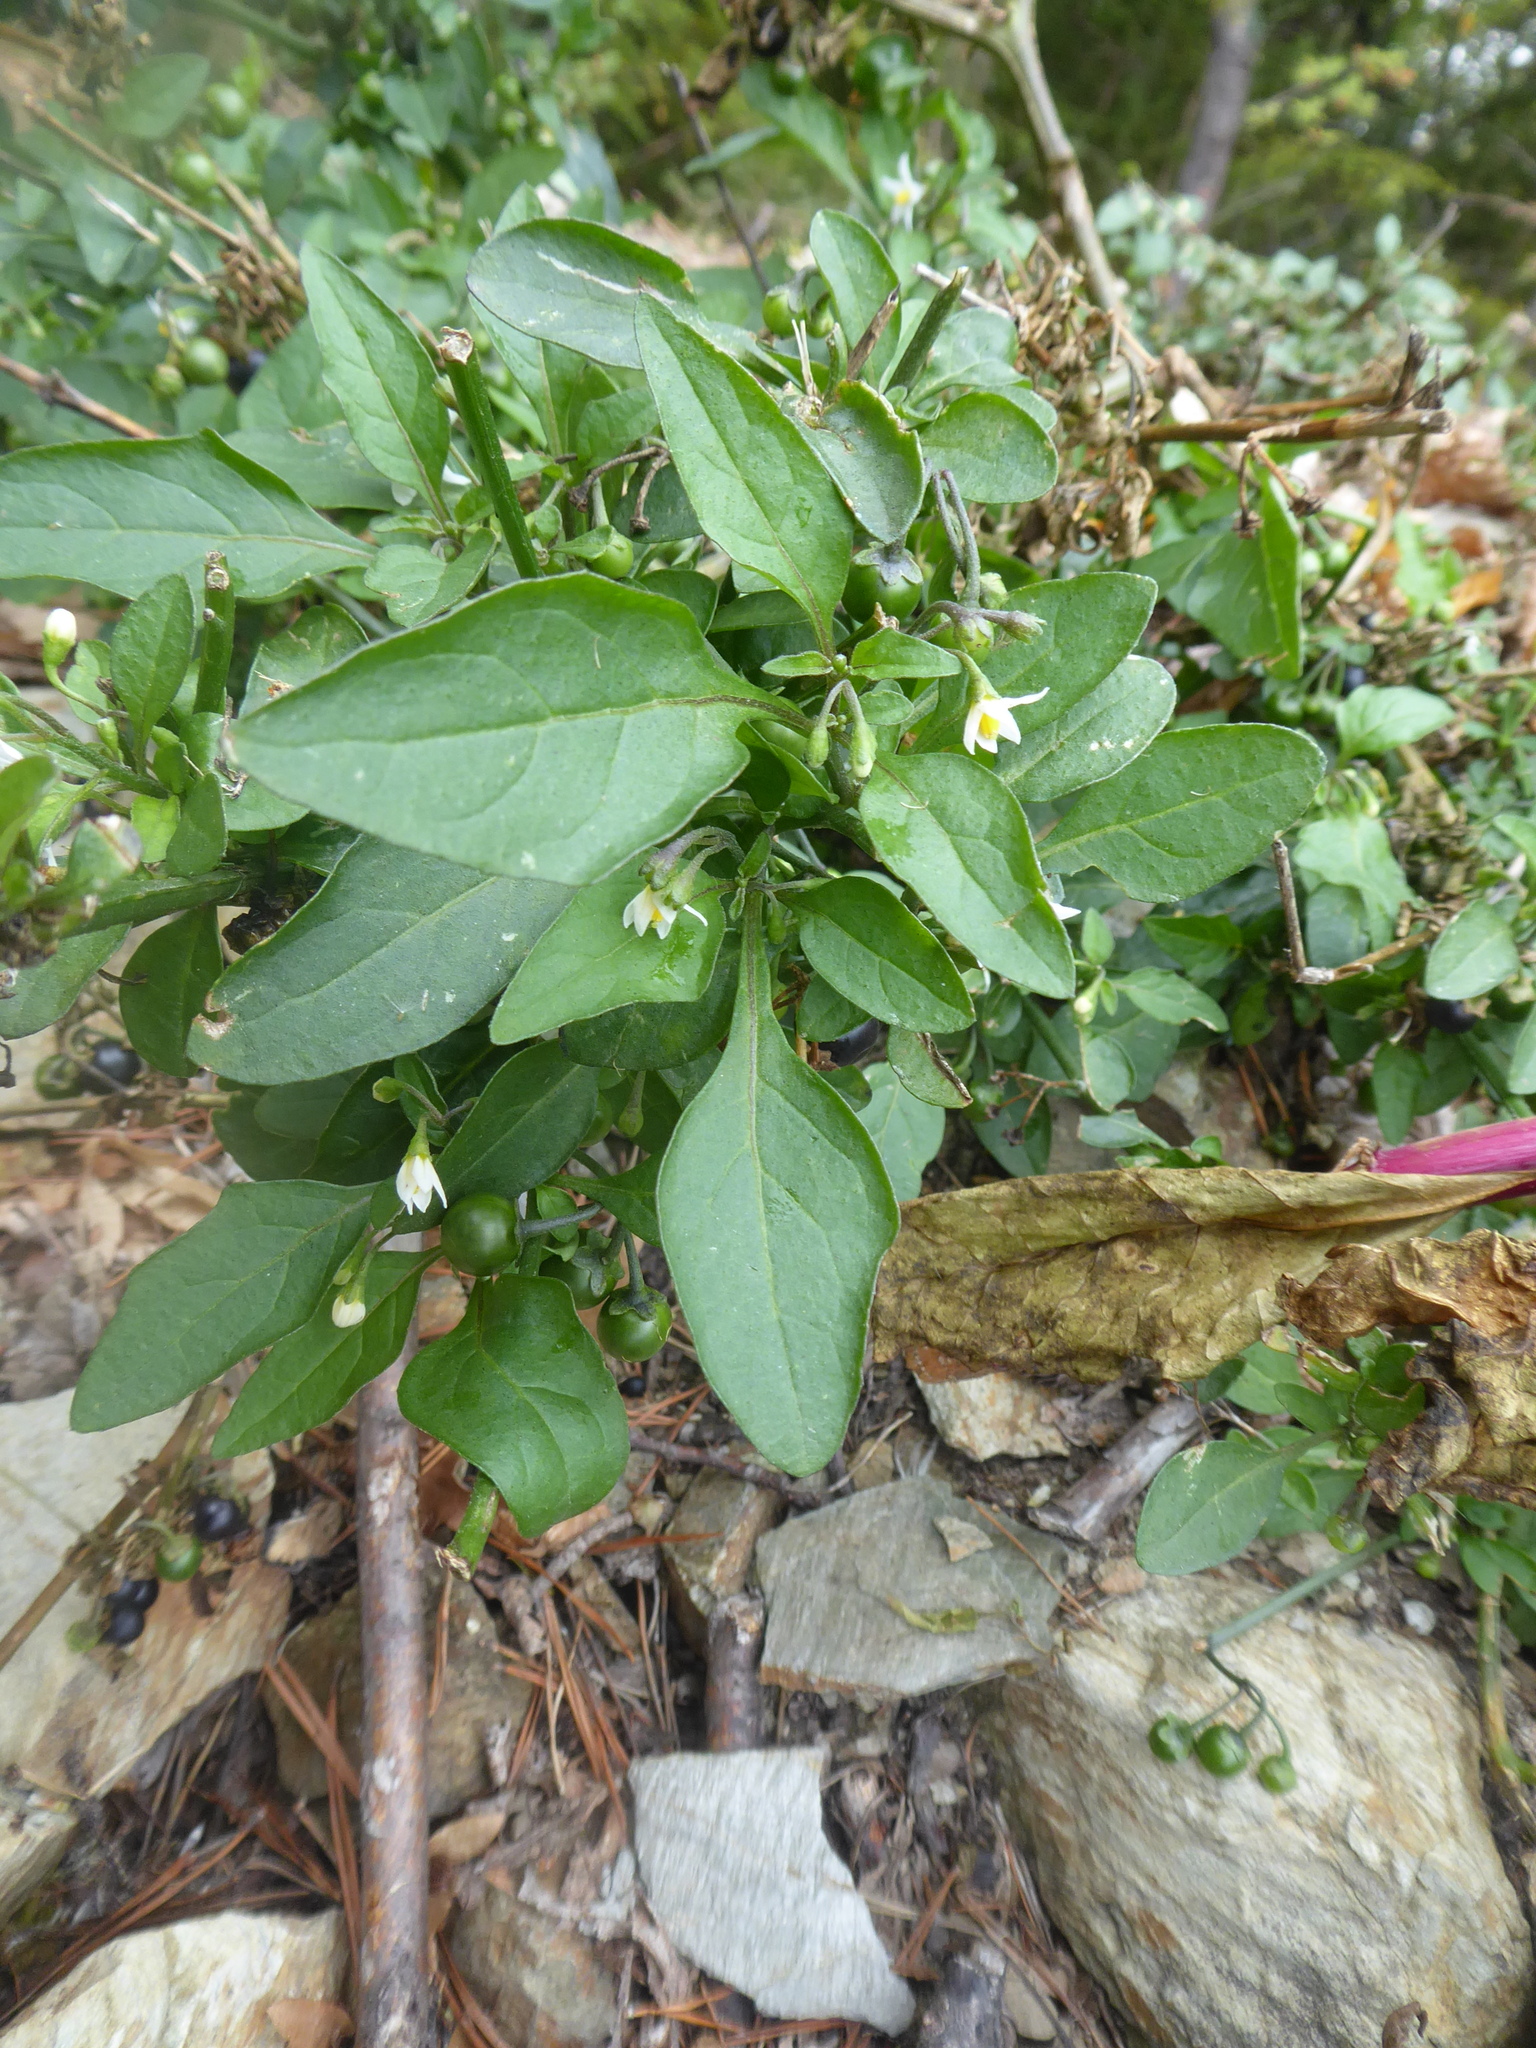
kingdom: Plantae
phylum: Tracheophyta
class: Magnoliopsida
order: Solanales
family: Solanaceae
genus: Solanum
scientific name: Solanum nigrum
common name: Black nightshade
